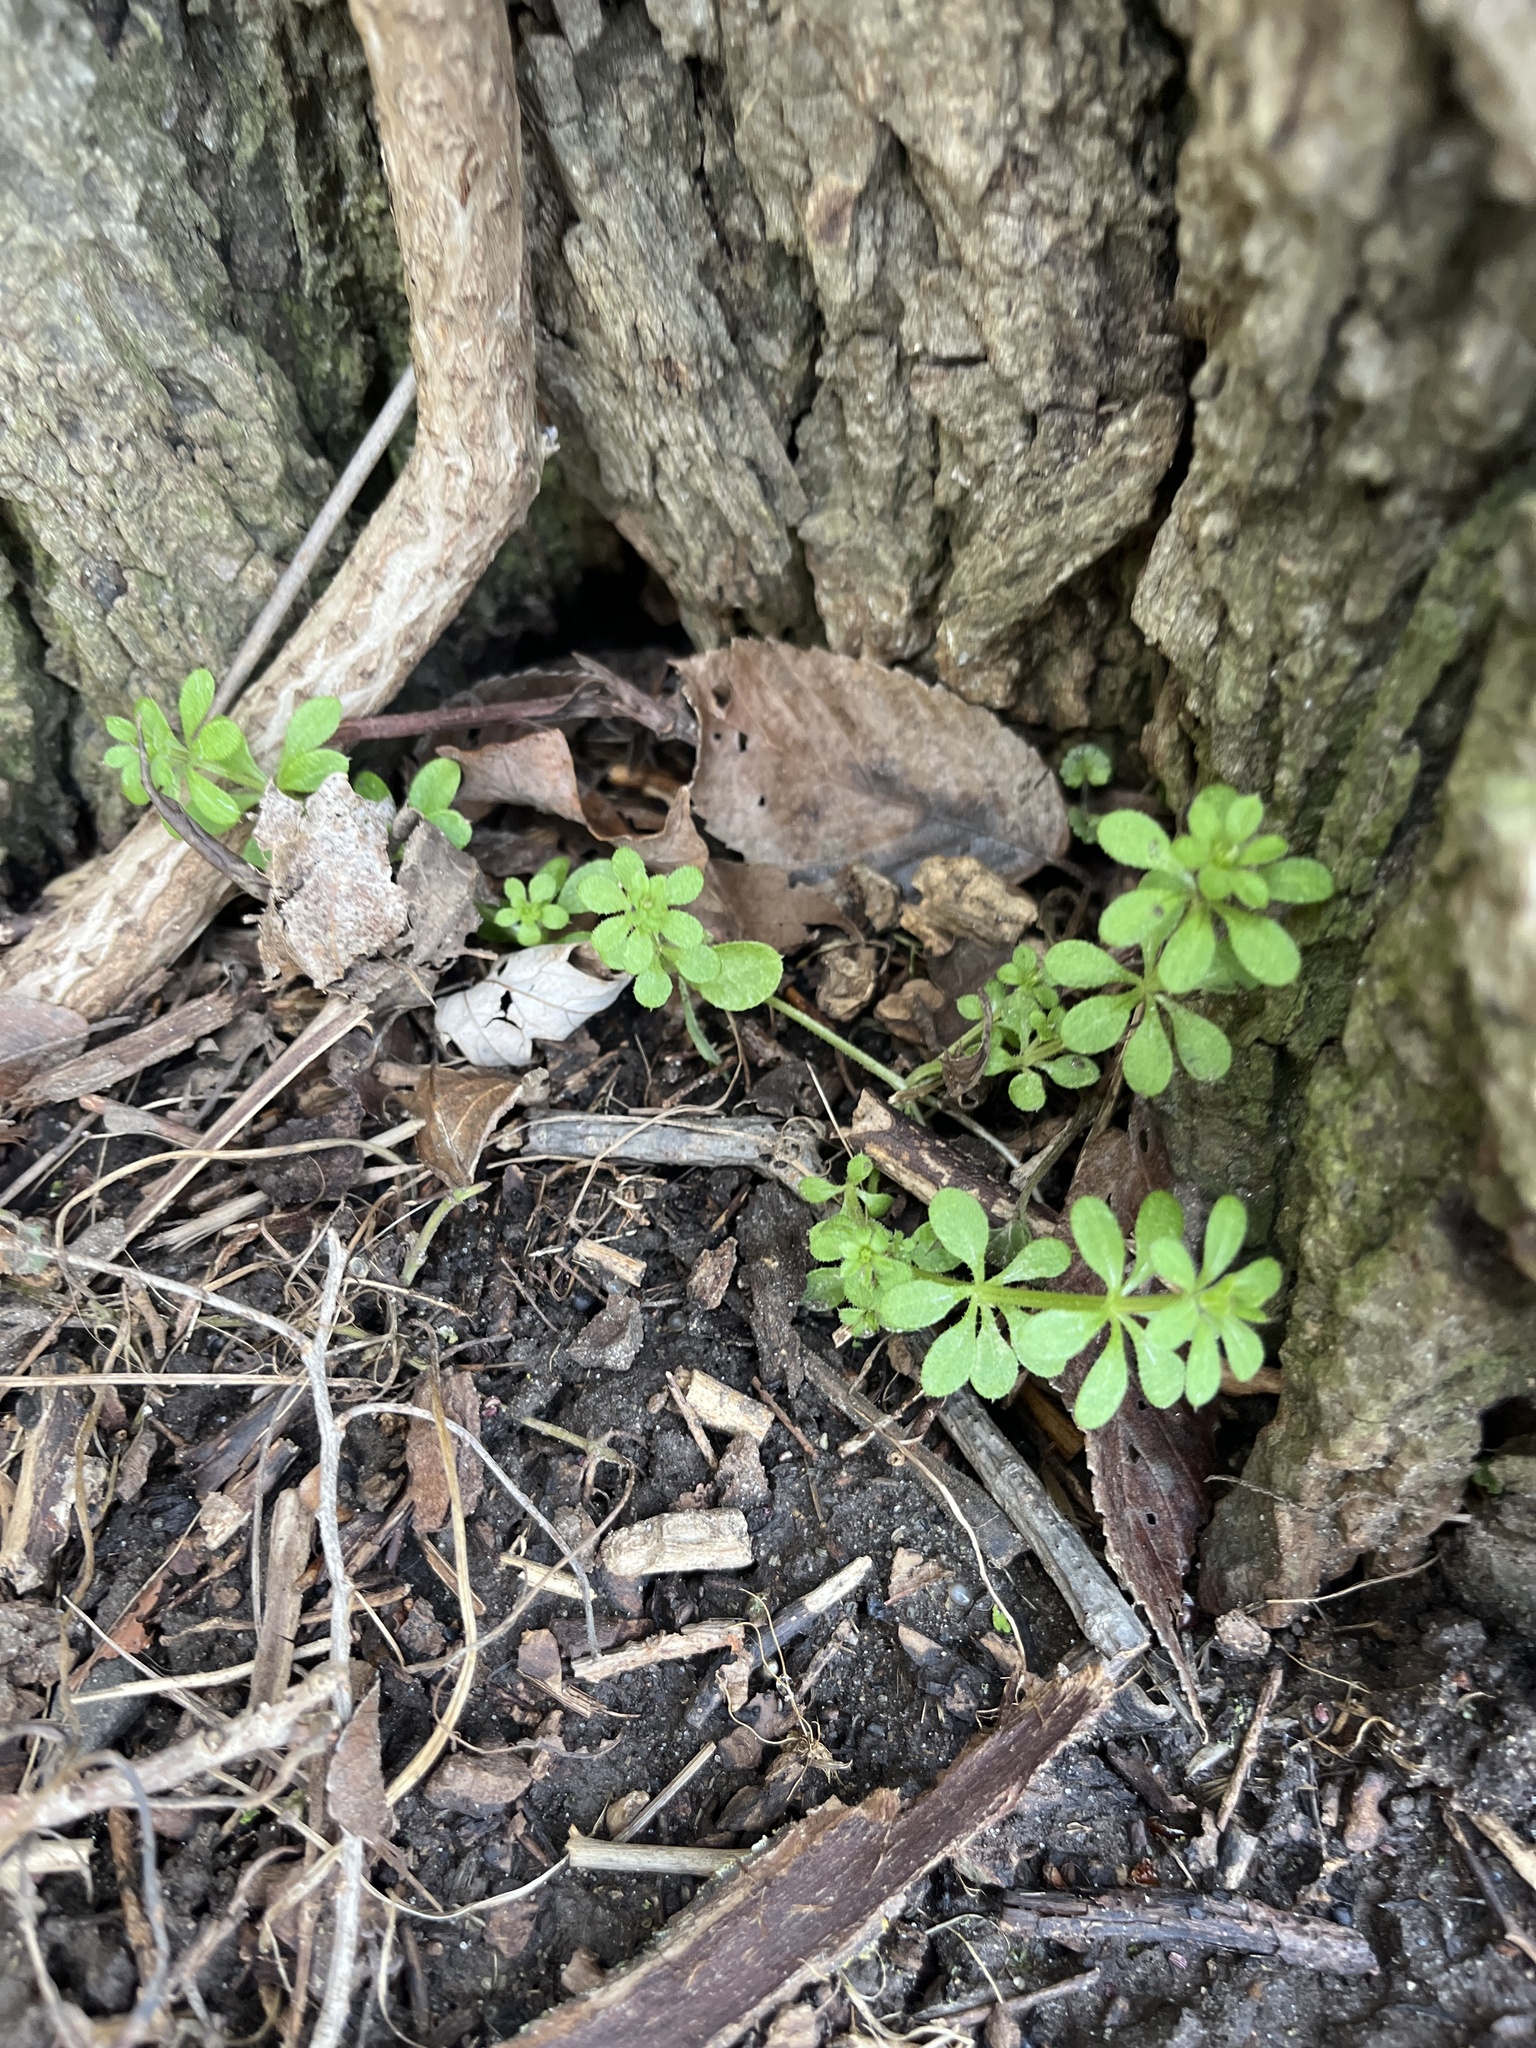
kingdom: Plantae
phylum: Tracheophyta
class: Magnoliopsida
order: Gentianales
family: Rubiaceae
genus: Galium
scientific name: Galium aparine
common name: Cleavers
